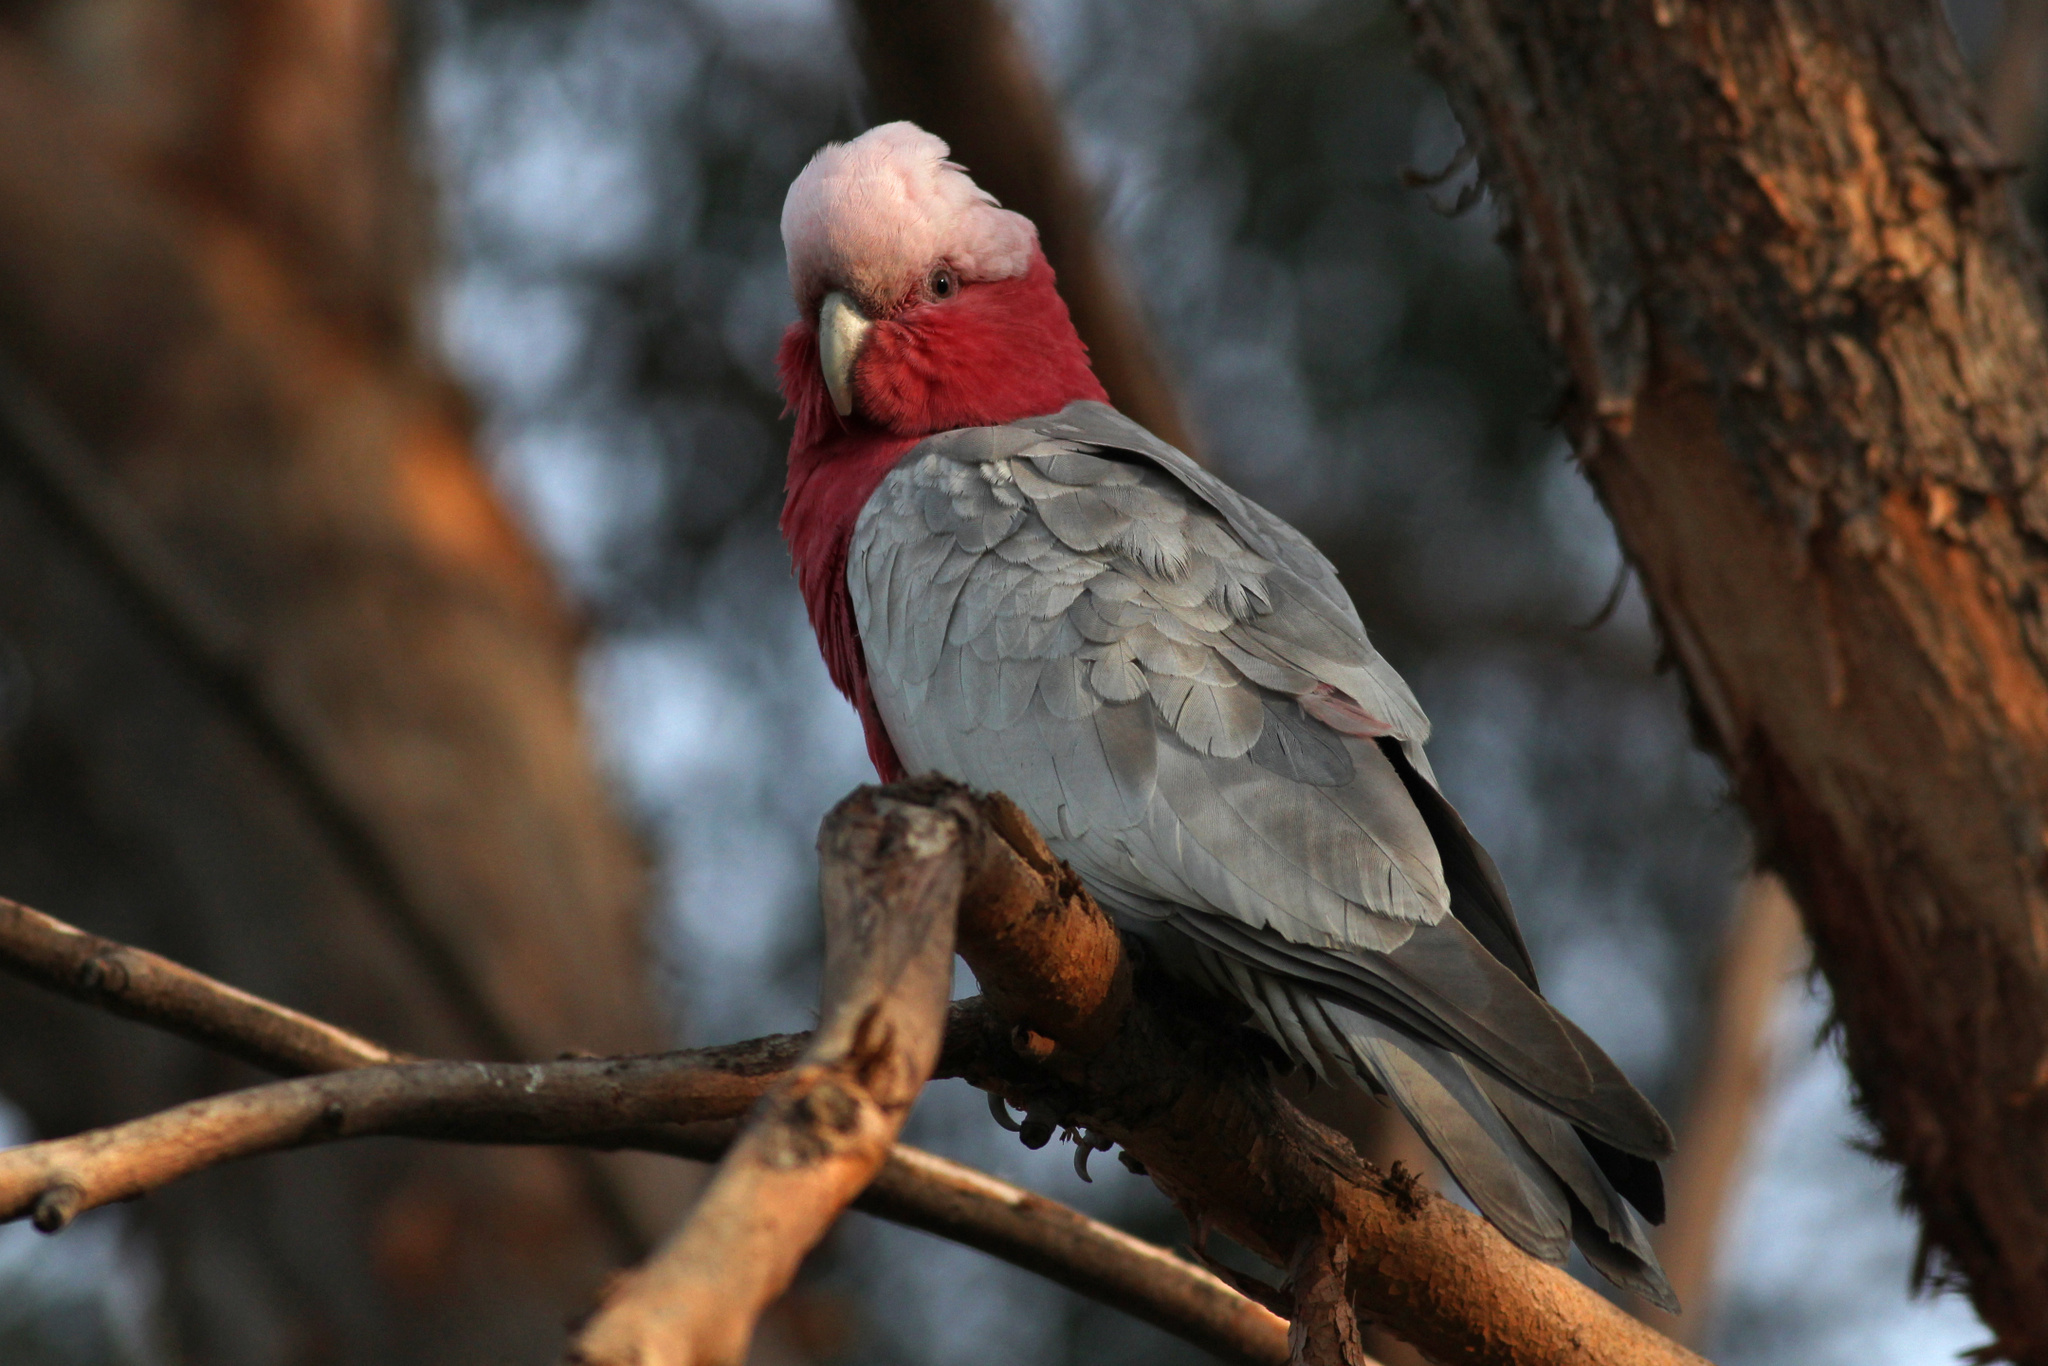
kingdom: Animalia
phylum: Chordata
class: Aves
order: Psittaciformes
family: Psittacidae
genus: Eolophus
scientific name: Eolophus roseicapilla
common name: Galah
